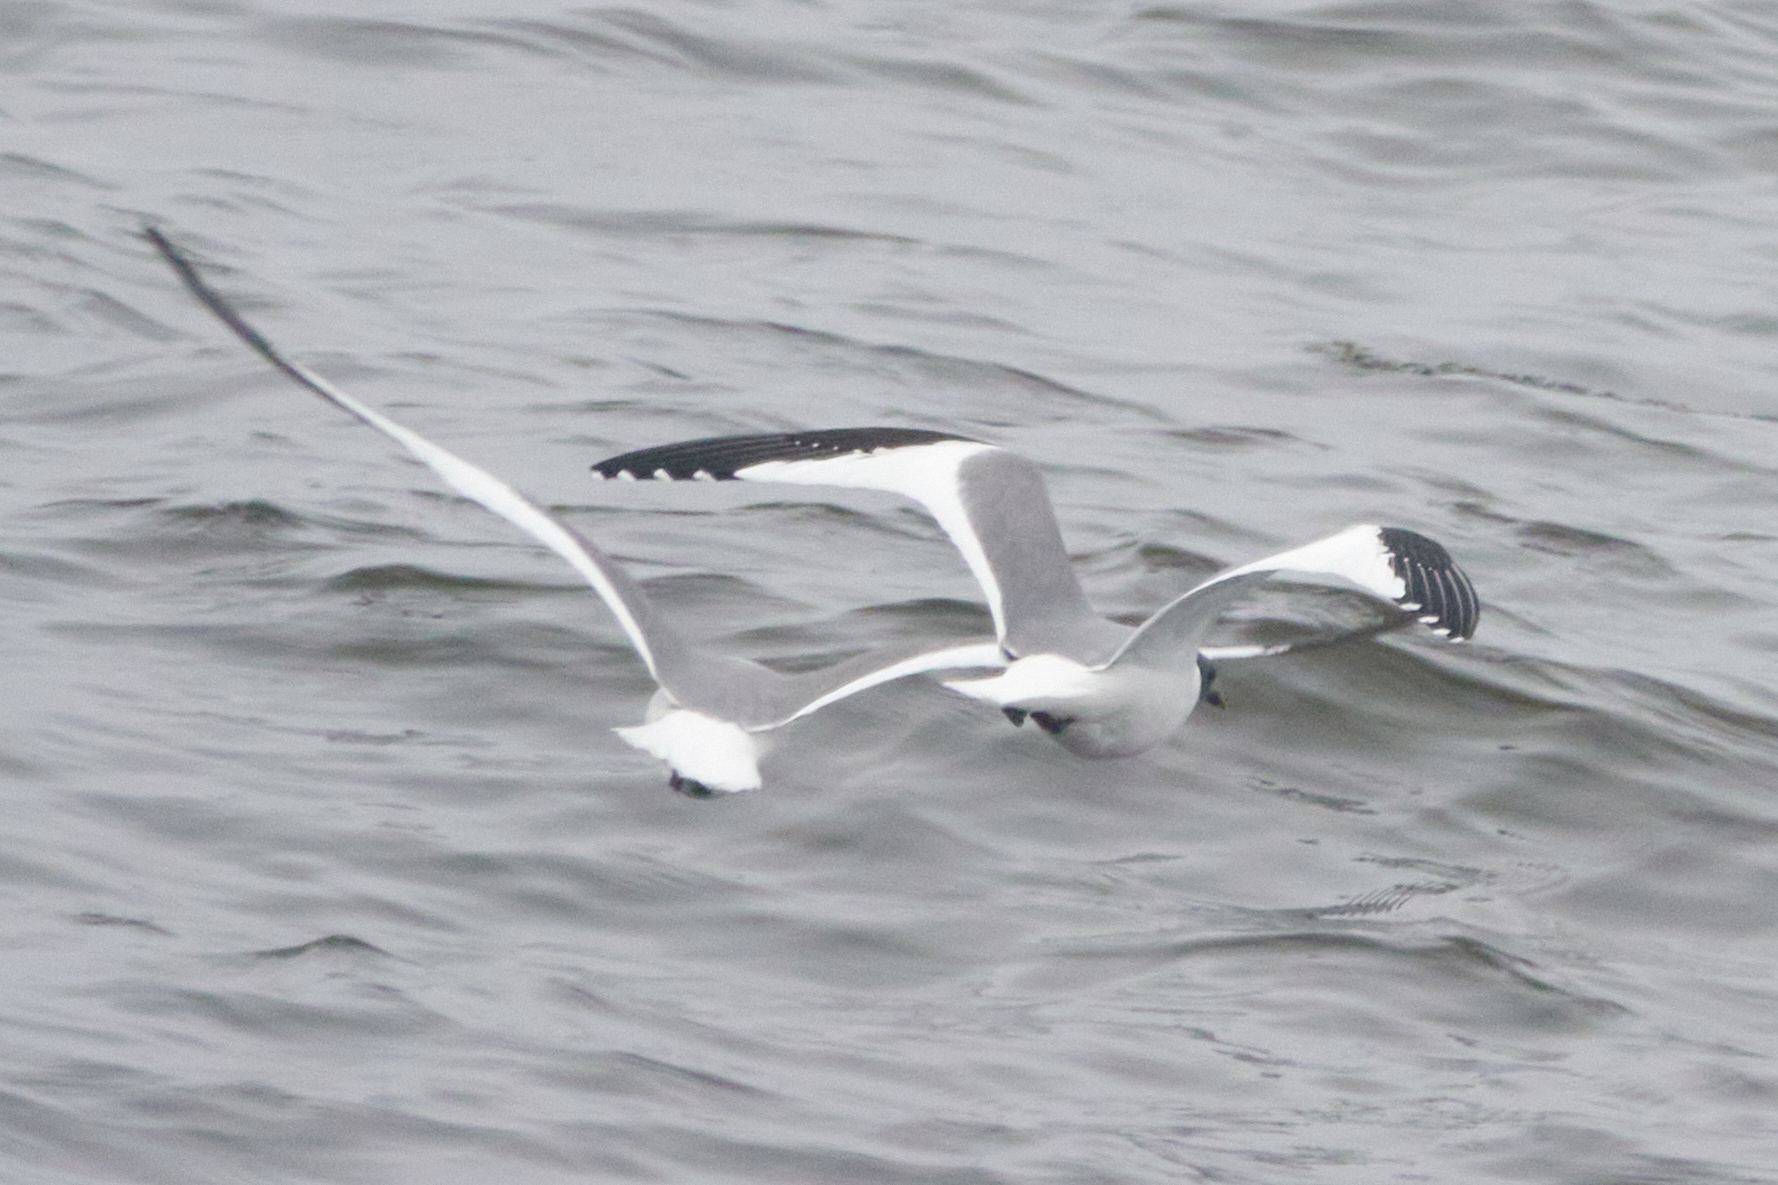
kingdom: Animalia
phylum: Chordata
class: Aves
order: Charadriiformes
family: Laridae
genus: Xema
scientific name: Xema sabini
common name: Sabine's gull
